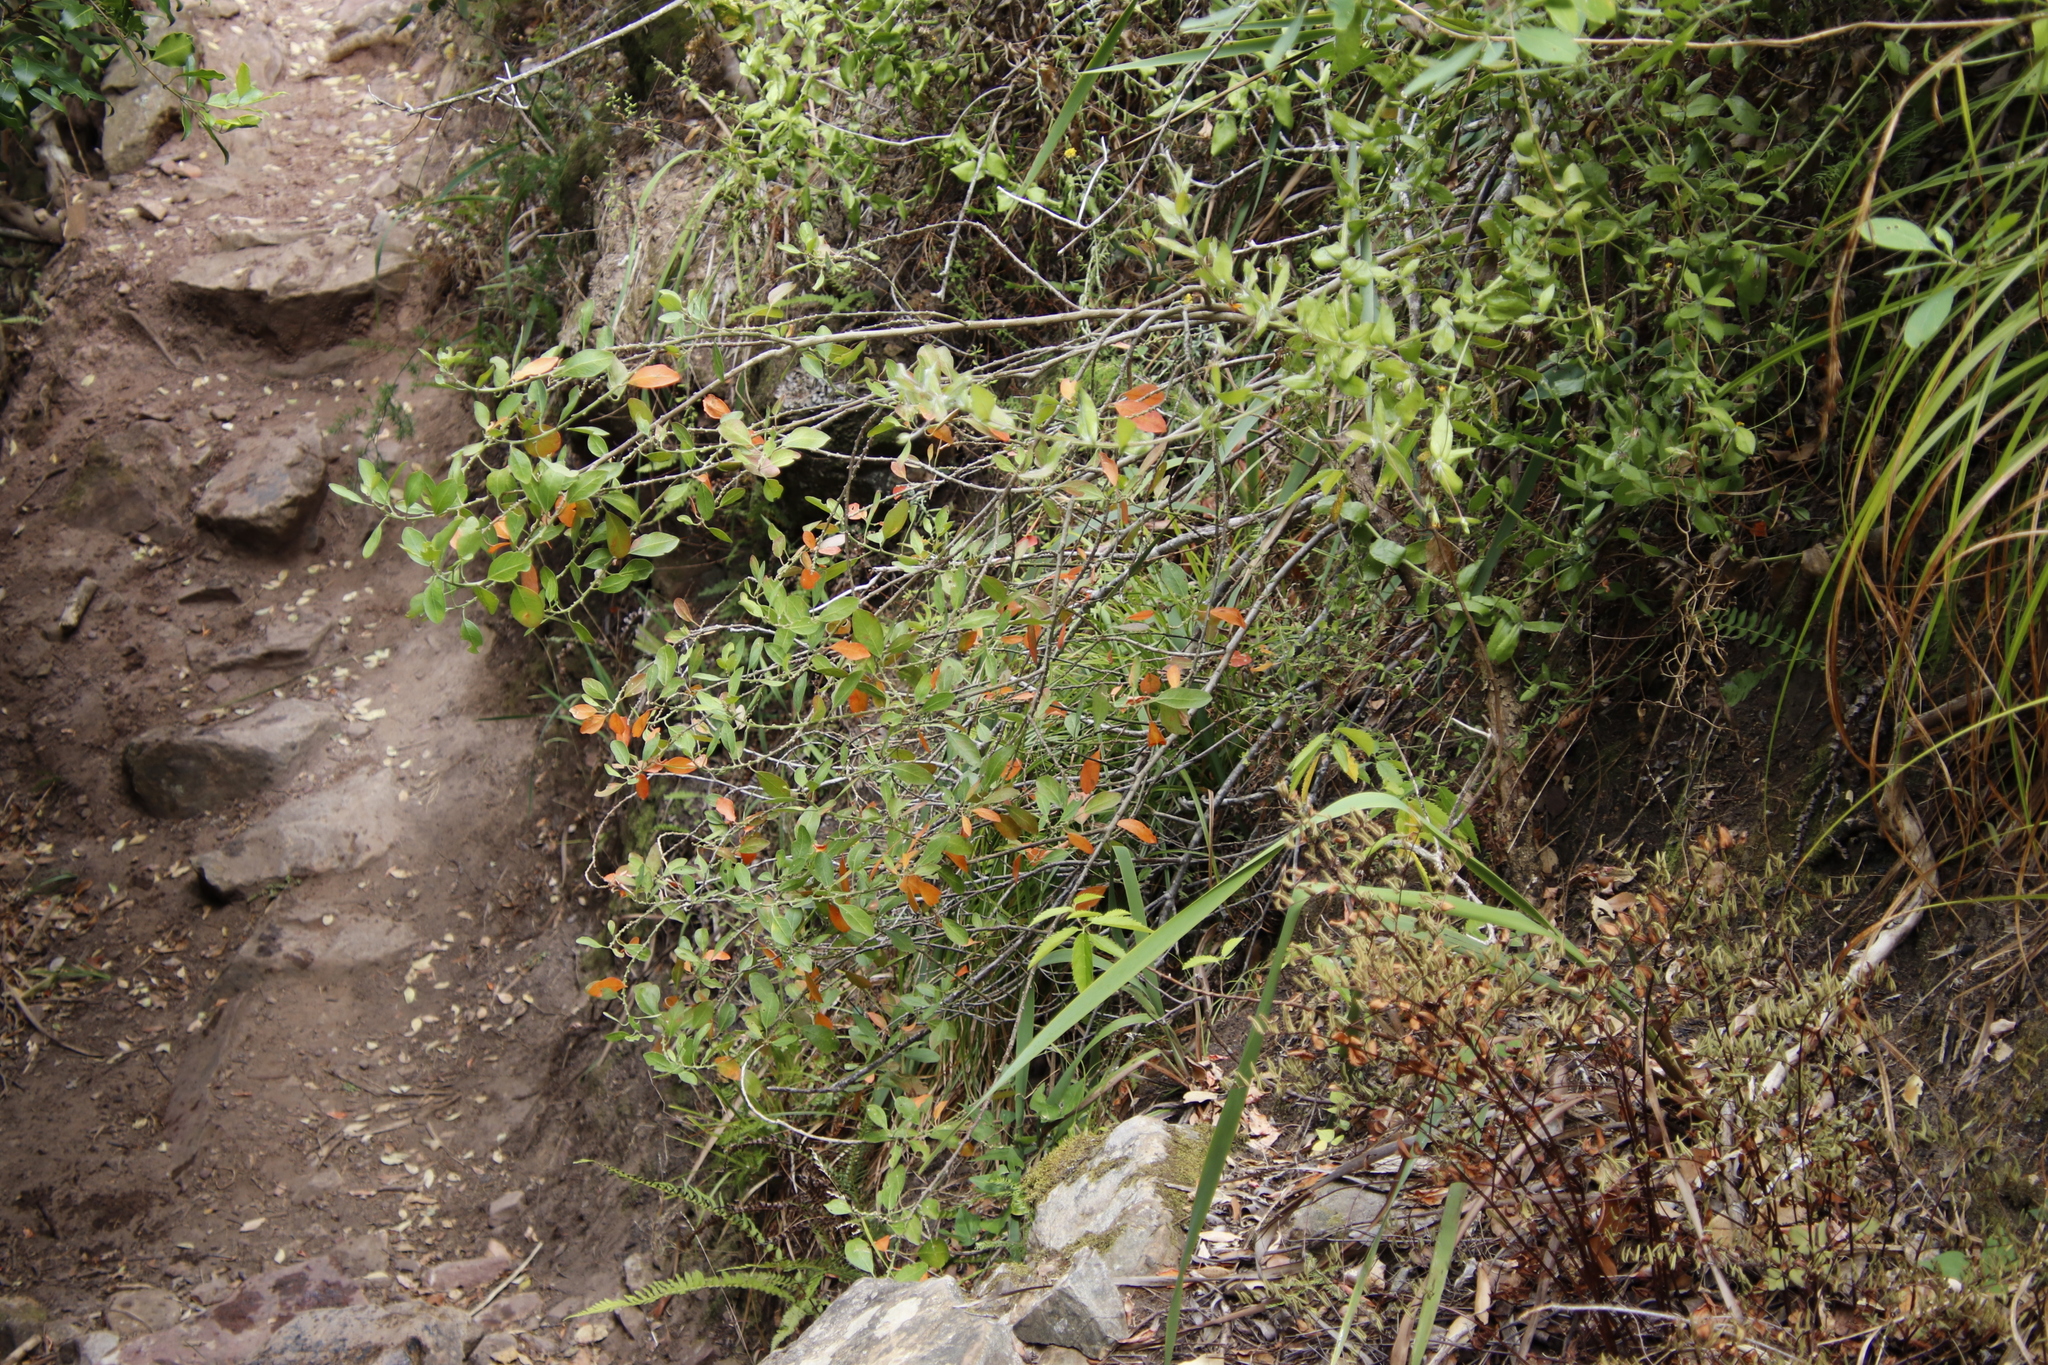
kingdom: Plantae
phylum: Tracheophyta
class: Magnoliopsida
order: Malpighiales
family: Peraceae
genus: Clutia
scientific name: Clutia pulchella
